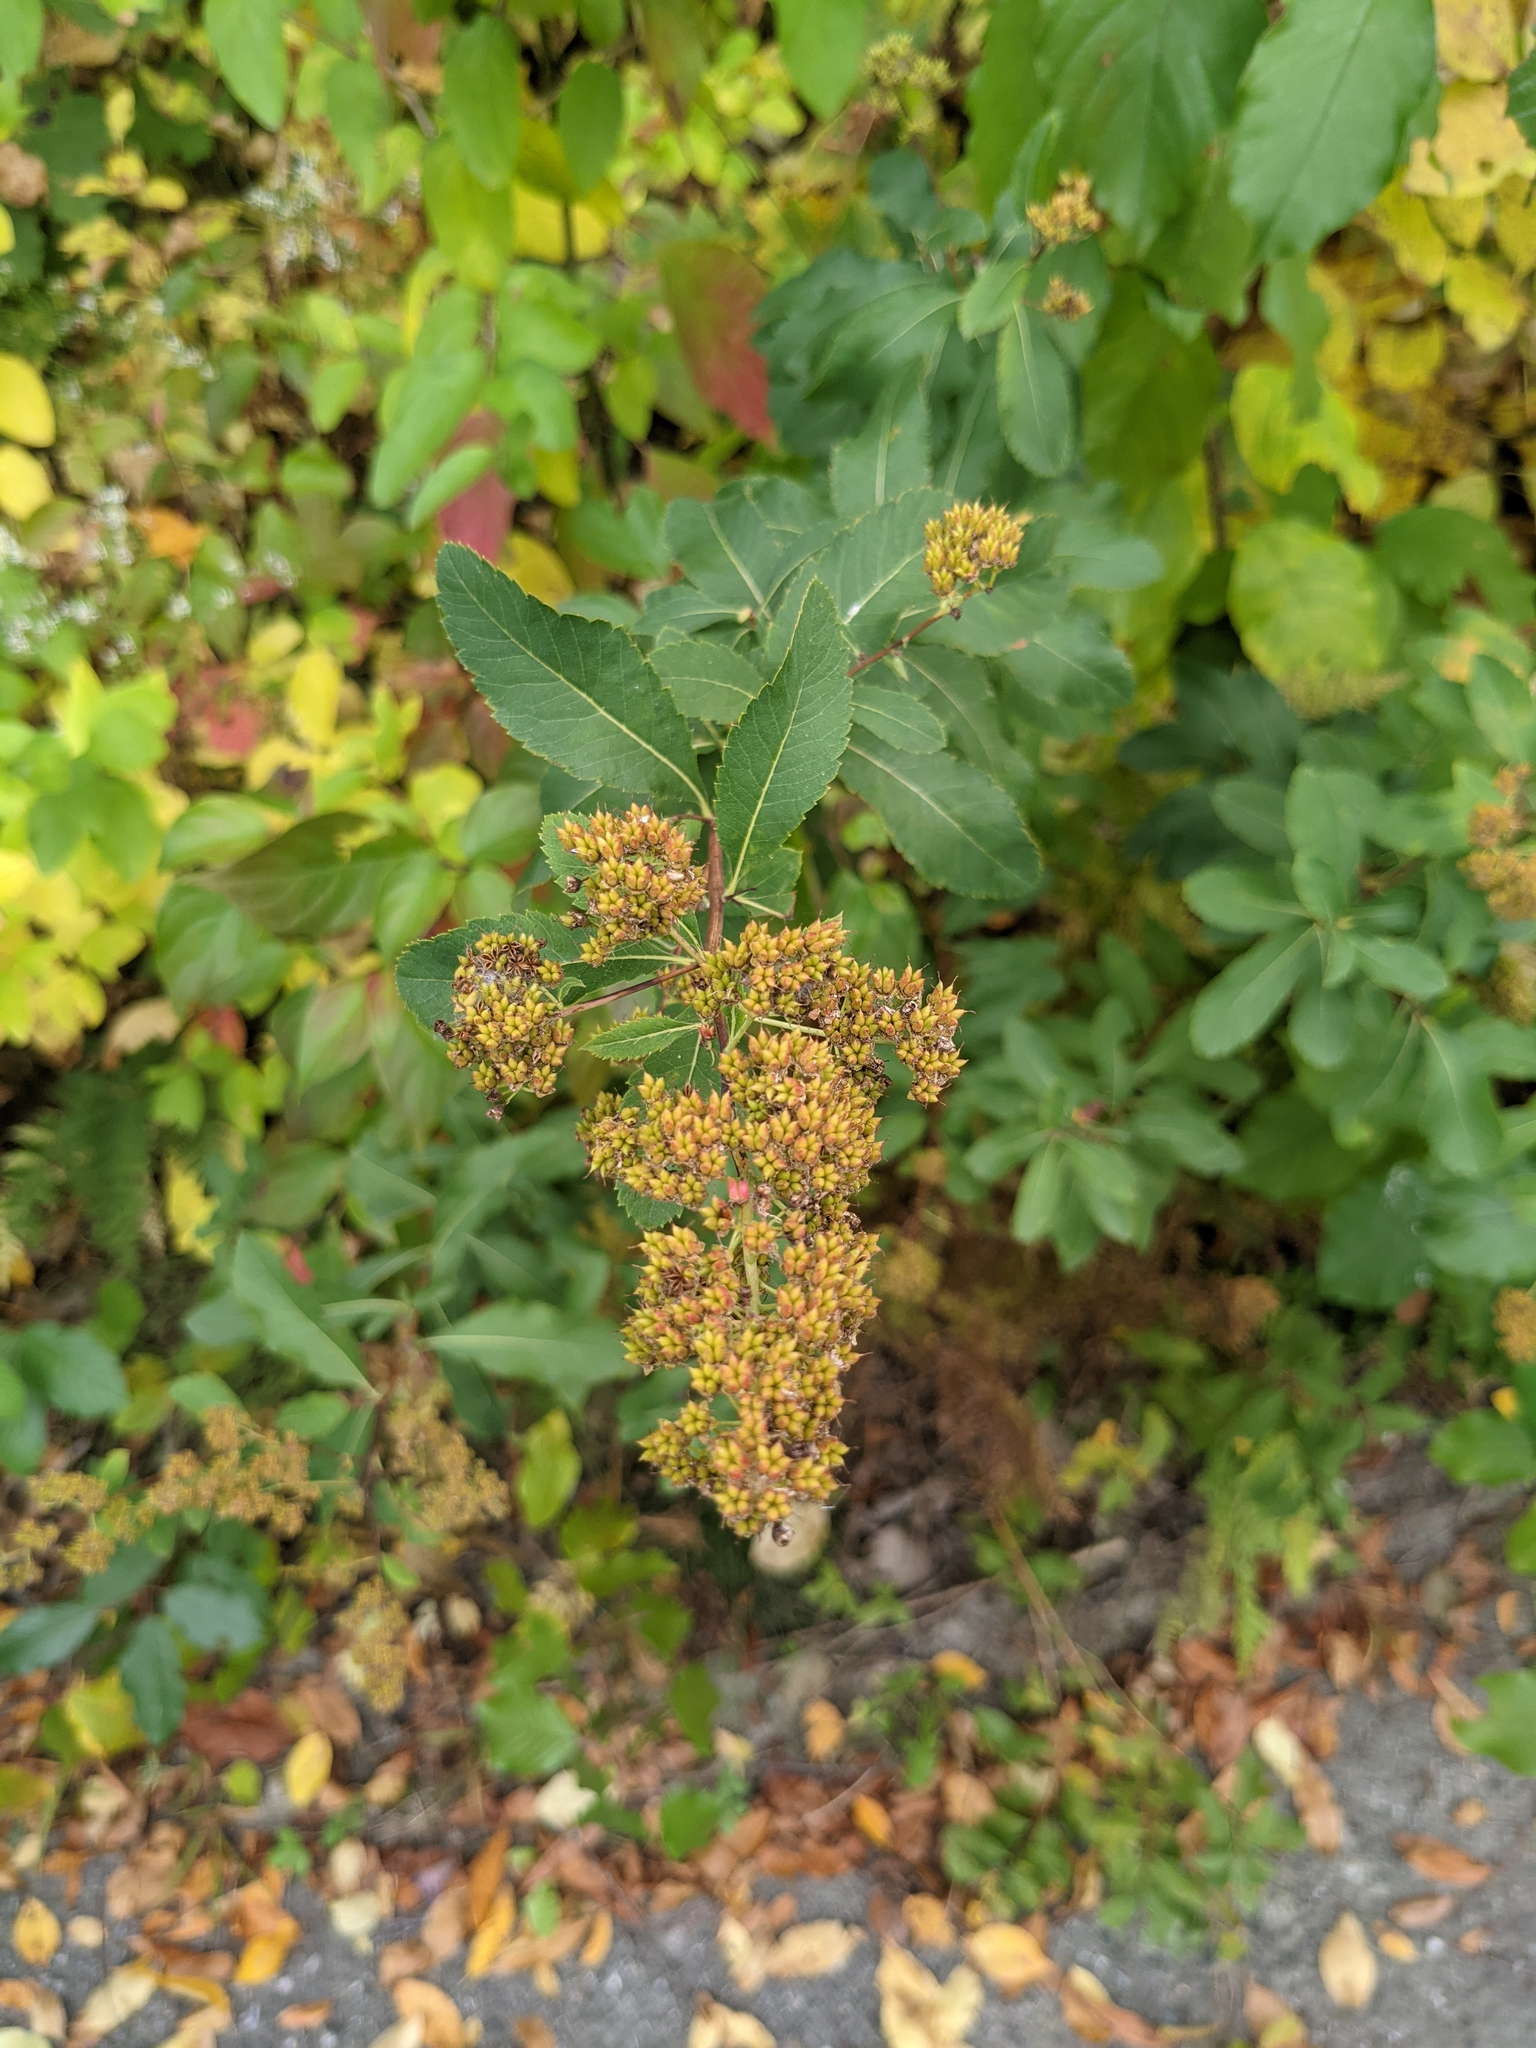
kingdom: Plantae
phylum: Tracheophyta
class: Magnoliopsida
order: Rosales
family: Rosaceae
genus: Spiraea
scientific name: Spiraea alba
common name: Pale bridewort
